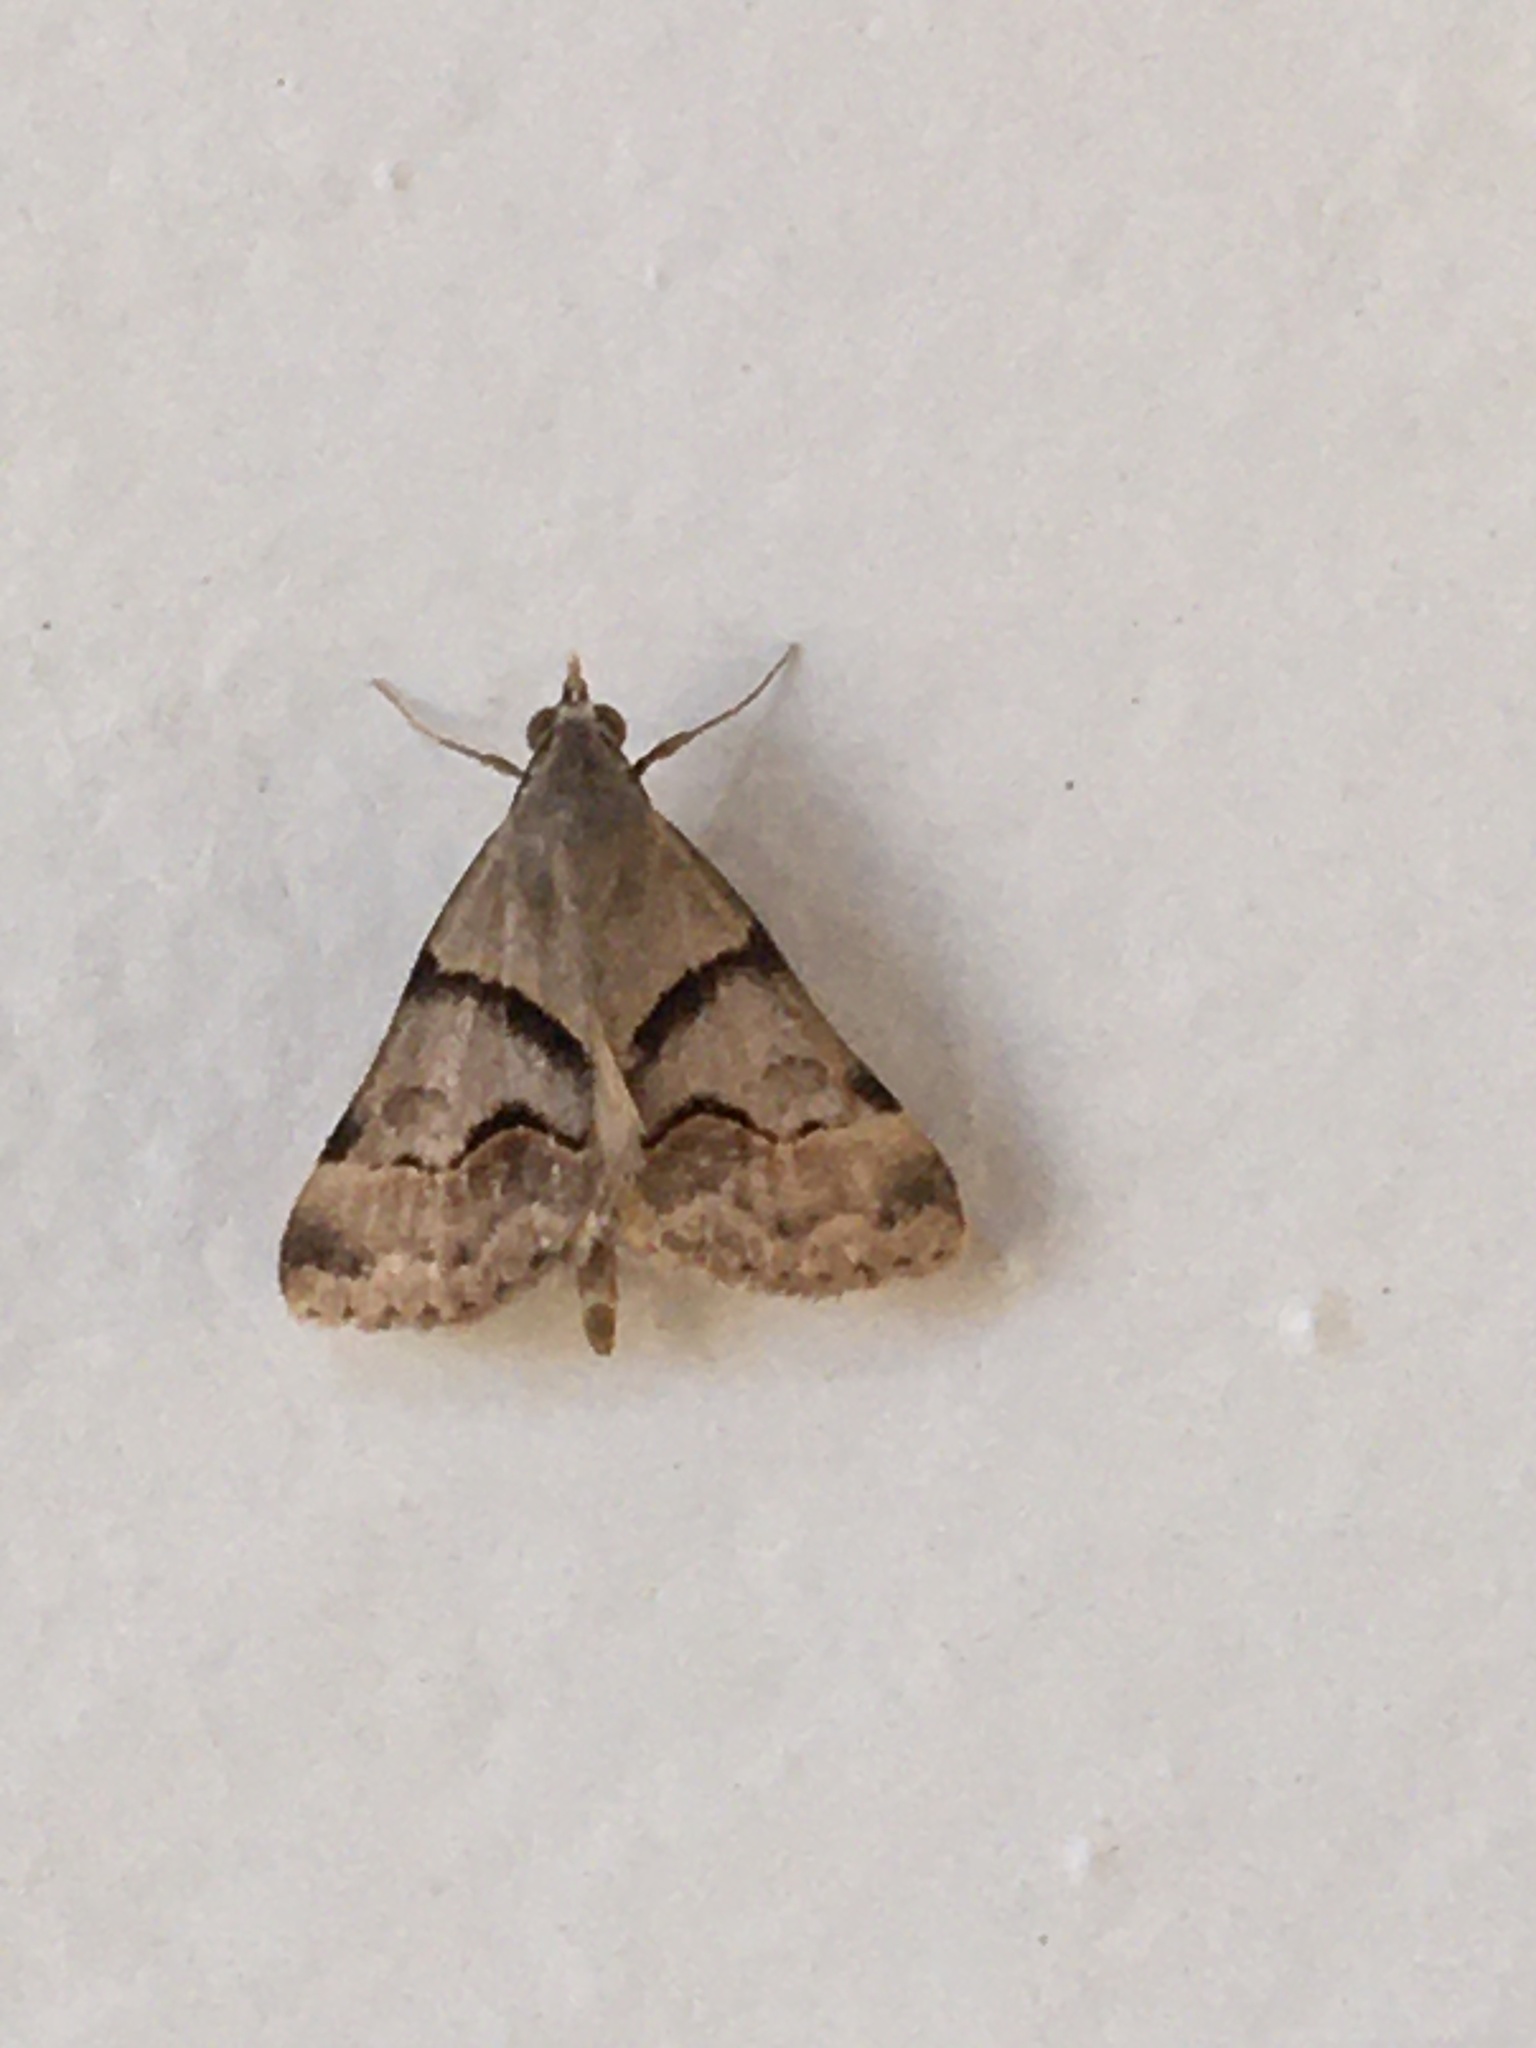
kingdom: Animalia
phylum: Arthropoda
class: Insecta
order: Lepidoptera
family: Erebidae
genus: Hemeroplanis
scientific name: Hemeroplanis incusalis
